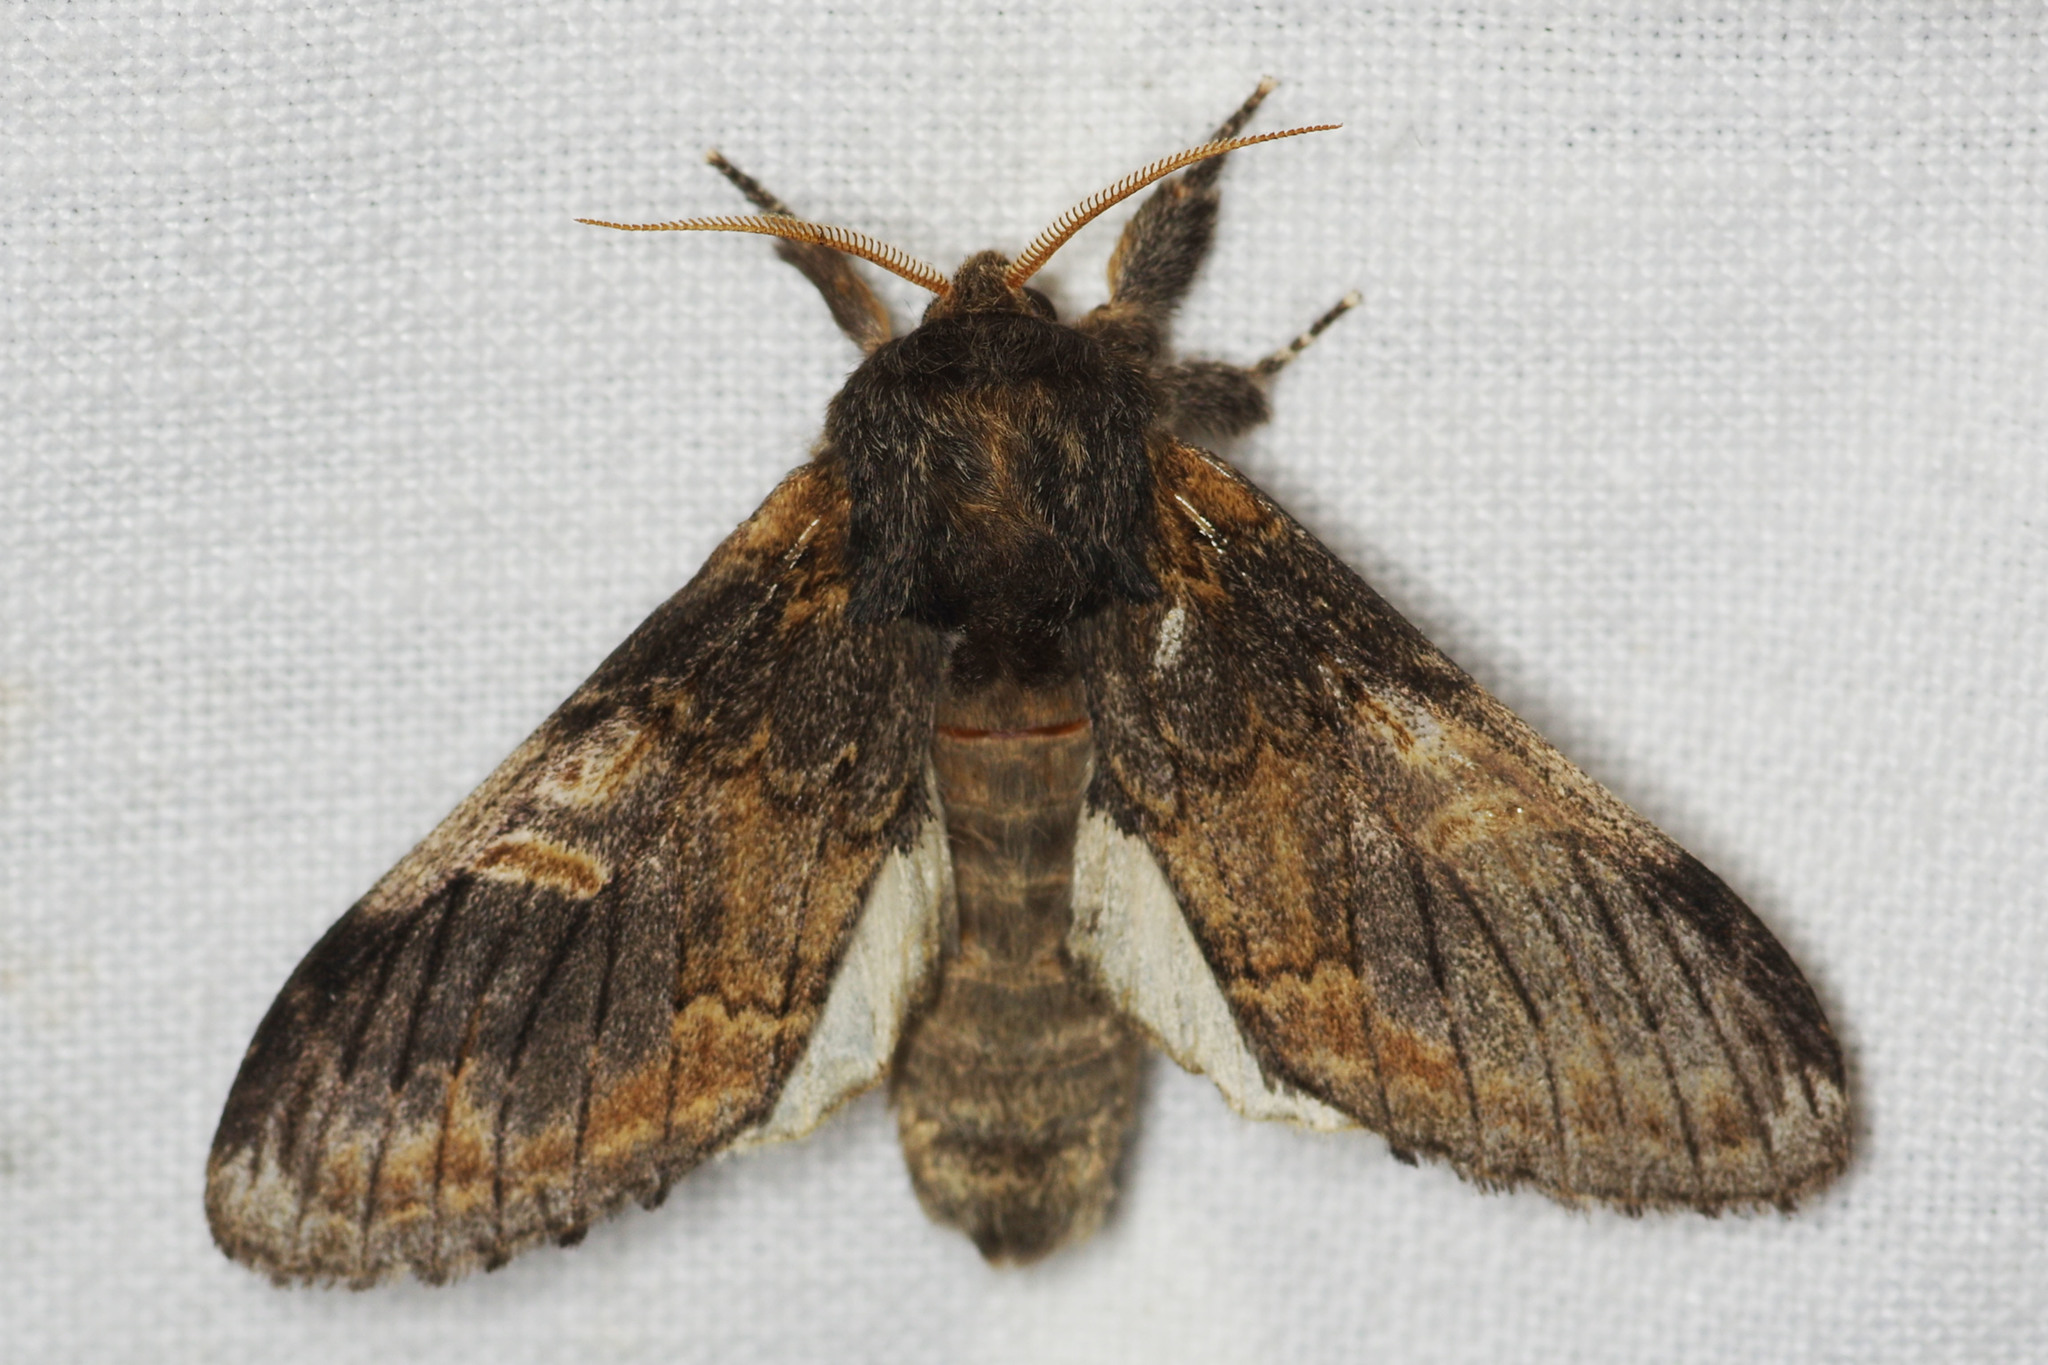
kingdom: Animalia
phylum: Arthropoda
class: Insecta
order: Lepidoptera
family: Notodontidae
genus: Notodonta
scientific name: Notodonta tritophus
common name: Three-humped prominent
